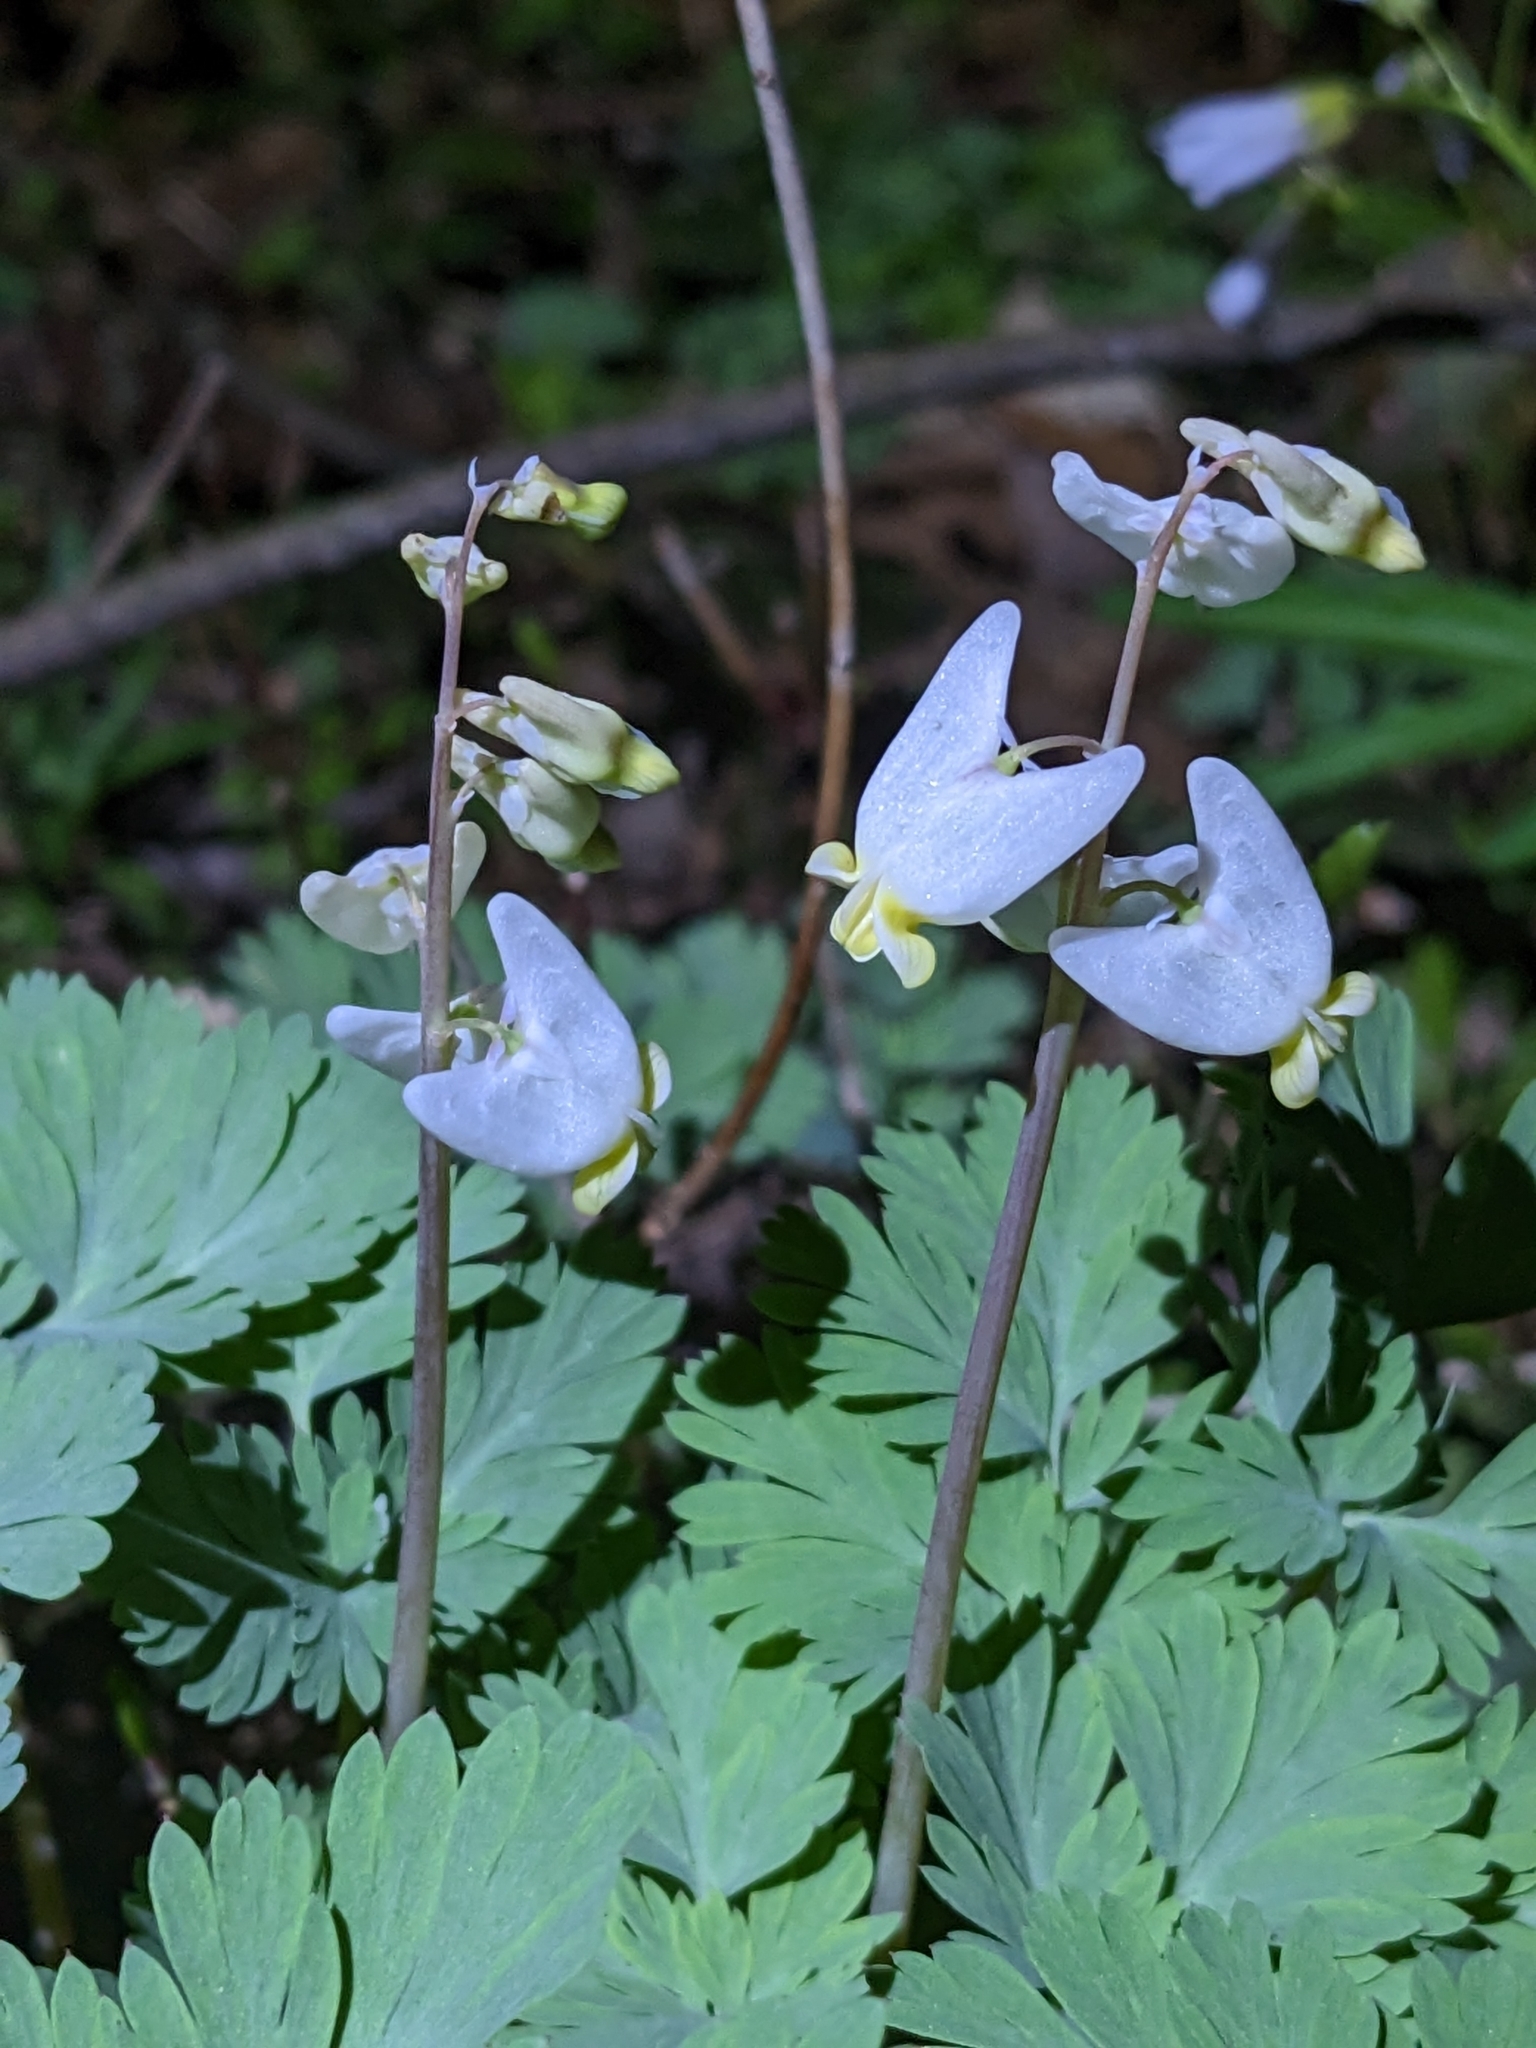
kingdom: Plantae
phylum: Tracheophyta
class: Magnoliopsida
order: Ranunculales
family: Papaveraceae
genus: Dicentra
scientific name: Dicentra cucullaria
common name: Dutchman's breeches
